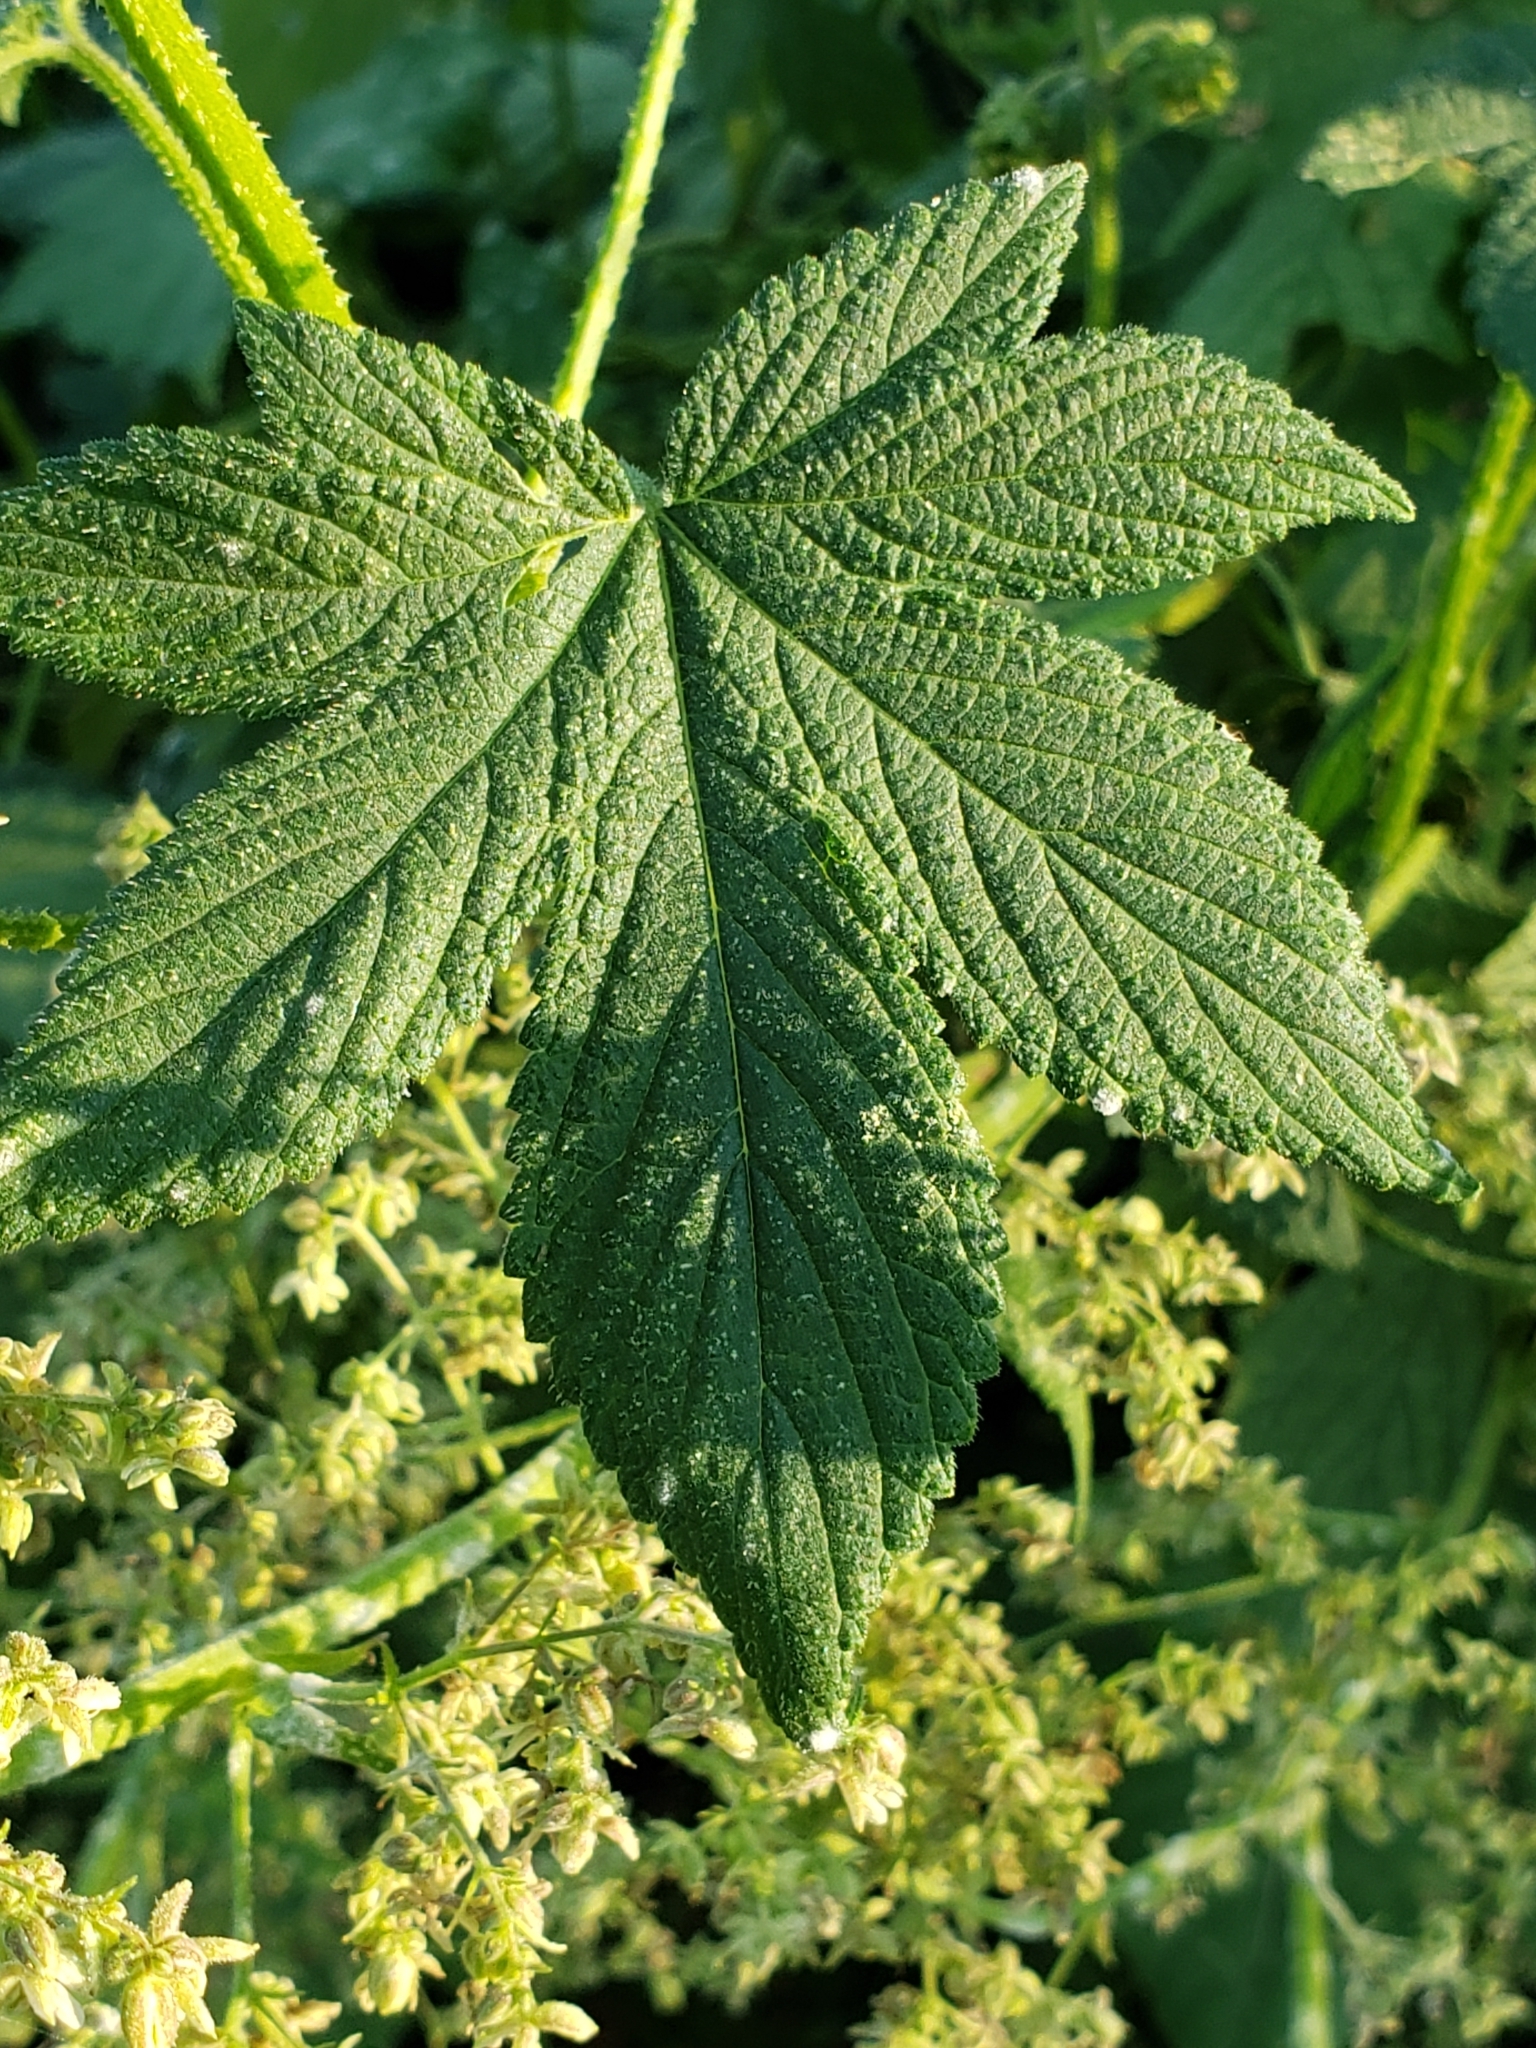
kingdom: Plantae
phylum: Tracheophyta
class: Magnoliopsida
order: Rosales
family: Cannabaceae
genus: Humulus
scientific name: Humulus scandens
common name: Japanese hop
